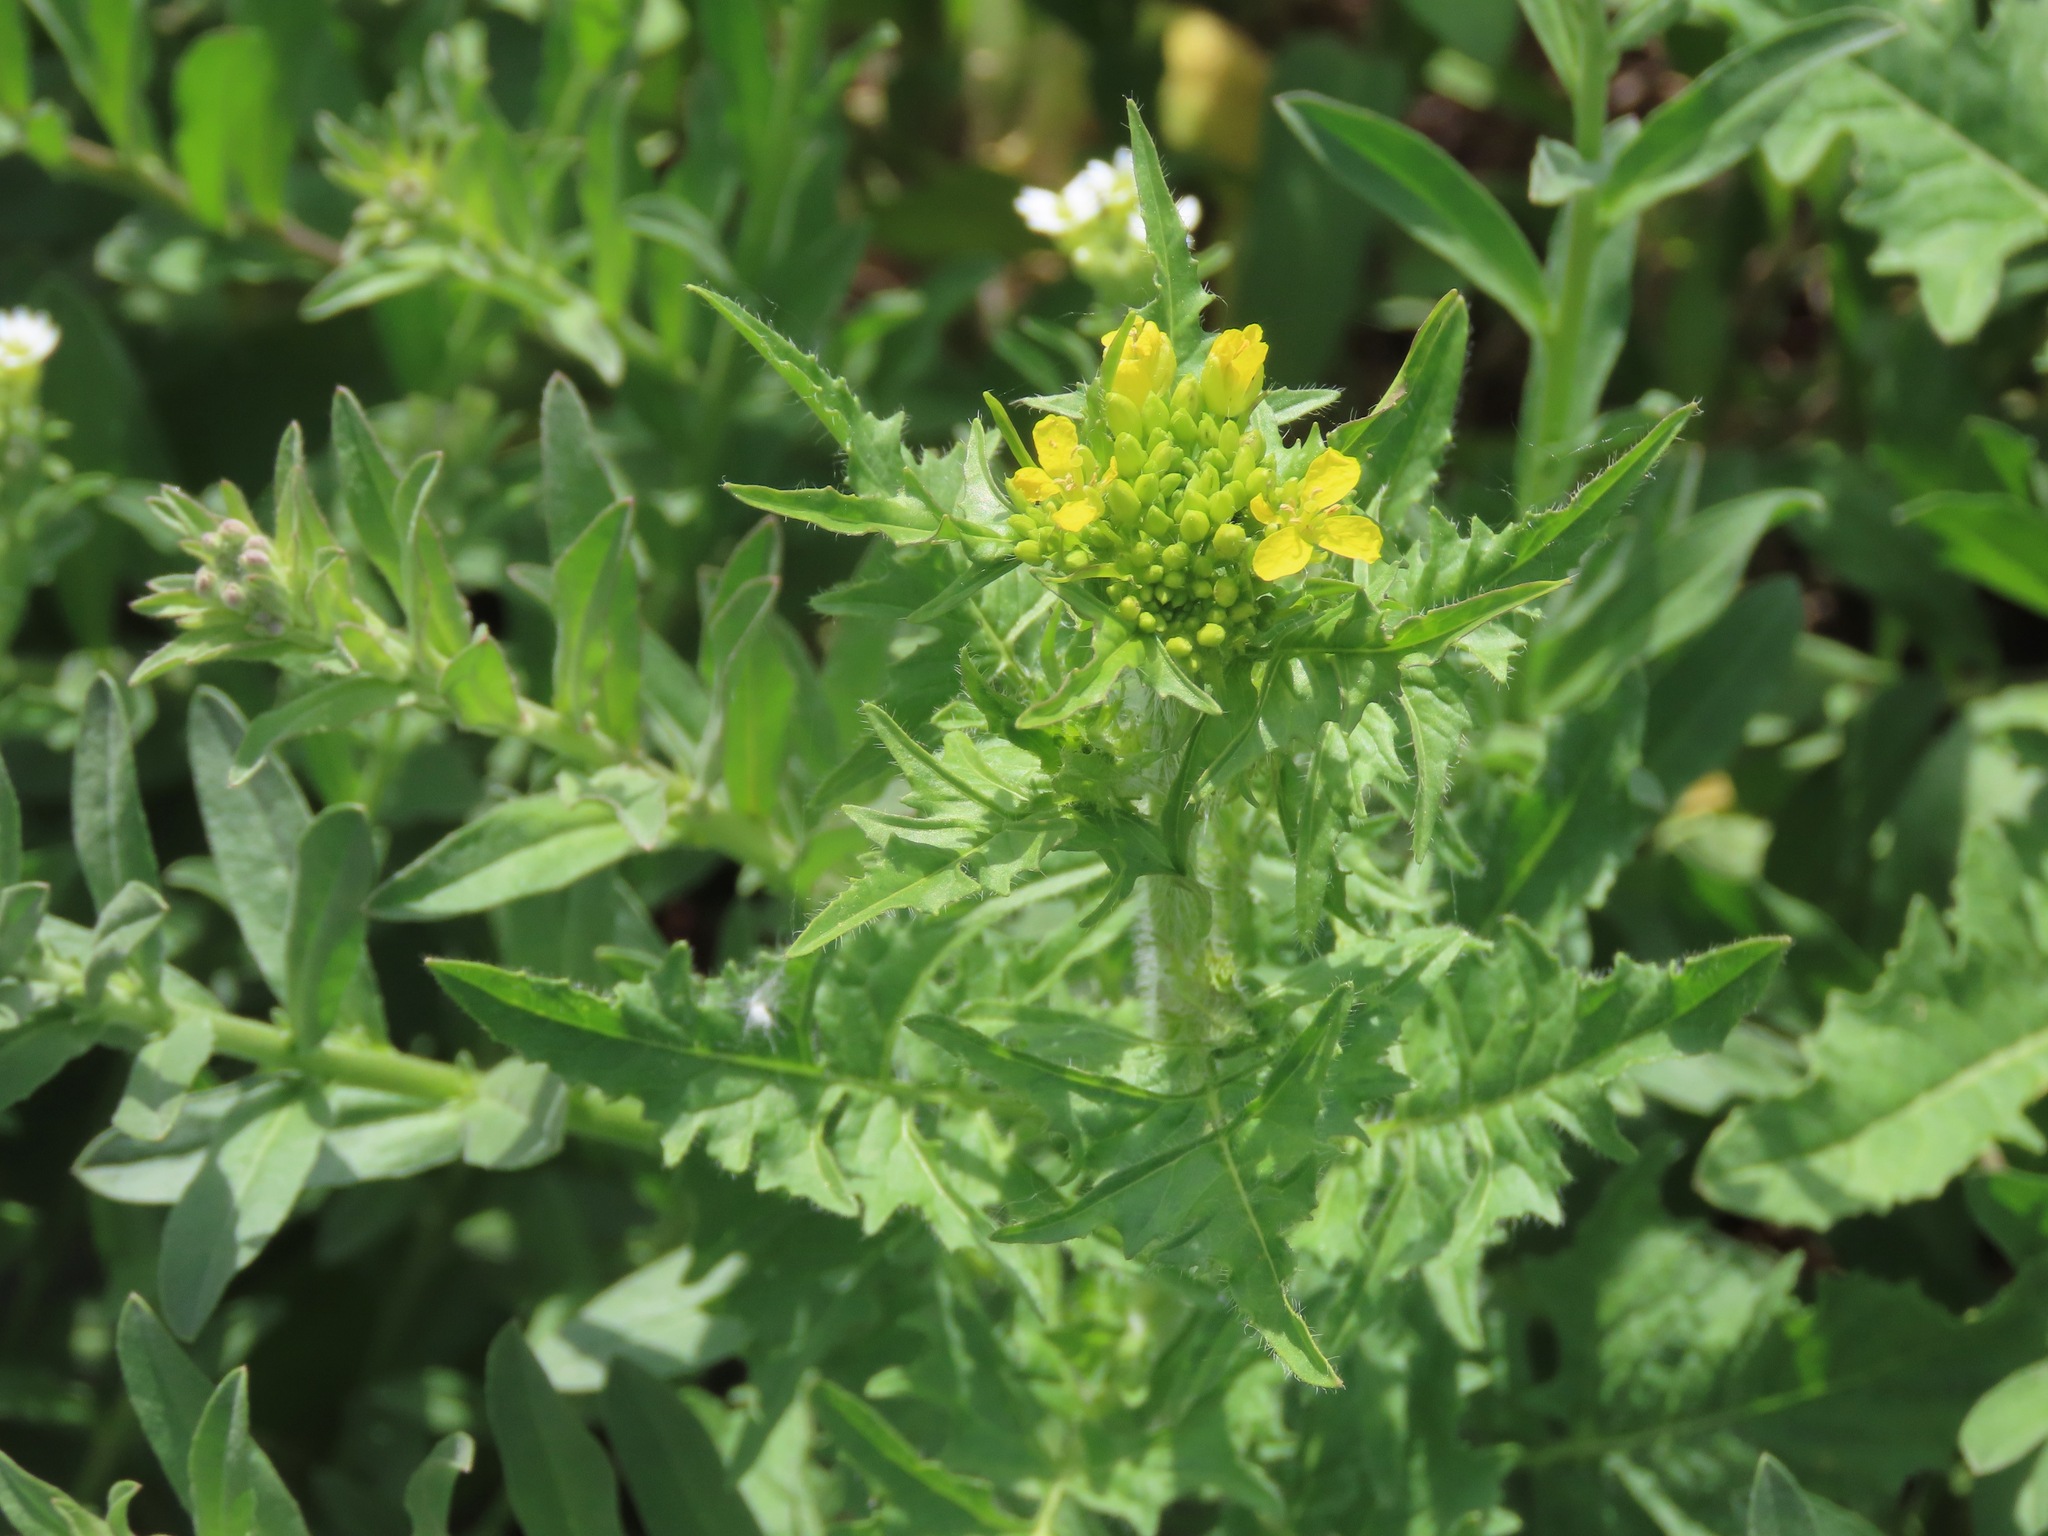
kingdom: Plantae
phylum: Tracheophyta
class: Magnoliopsida
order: Brassicales
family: Brassicaceae
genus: Sisymbrium
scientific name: Sisymbrium loeselii
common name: False london-rocket
